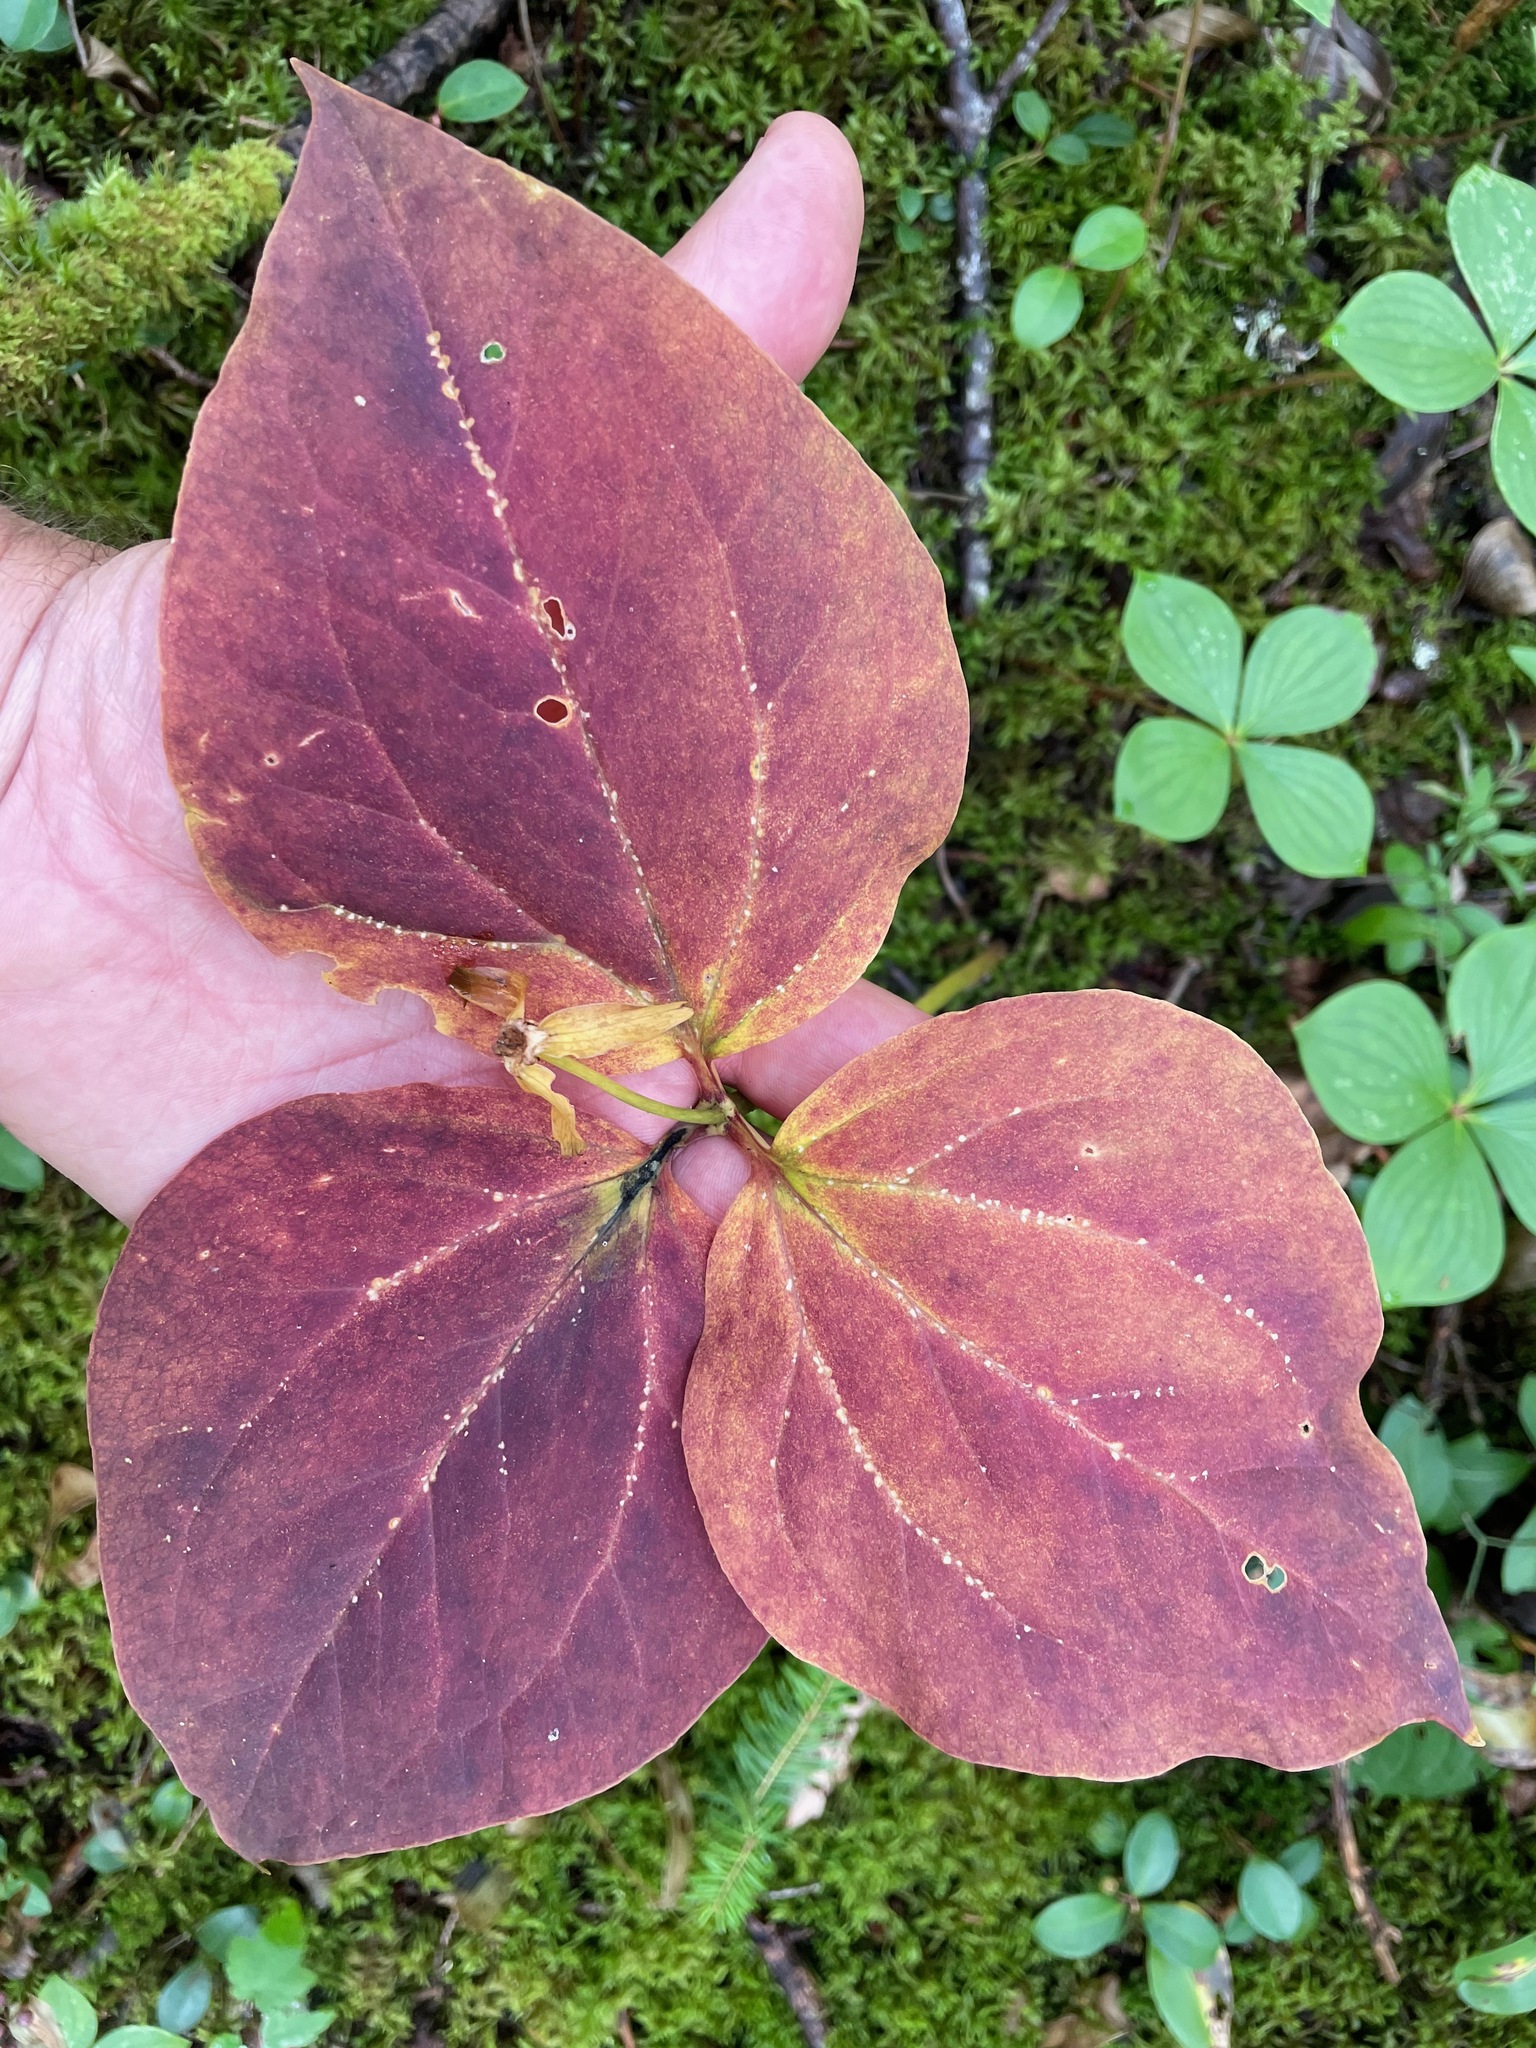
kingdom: Plantae
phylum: Tracheophyta
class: Liliopsida
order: Liliales
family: Melanthiaceae
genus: Trillium
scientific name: Trillium undulatum
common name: Paint trillium
